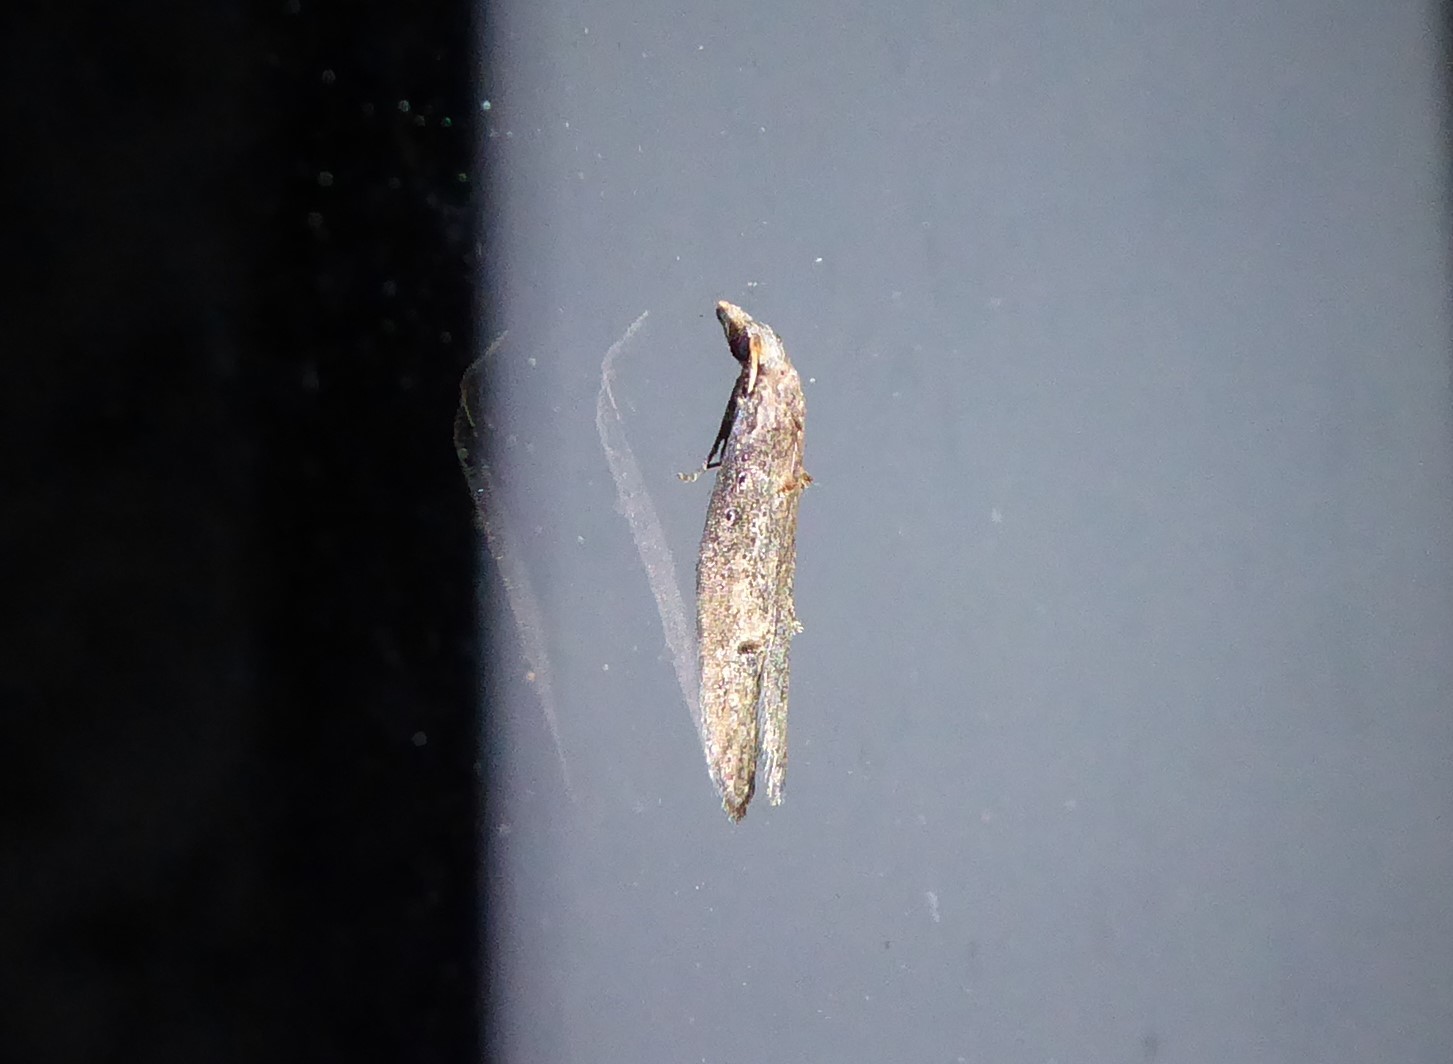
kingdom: Animalia
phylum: Arthropoda
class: Insecta
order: Lepidoptera
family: Carposinidae
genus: Carposina
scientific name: Carposina rubophaga
